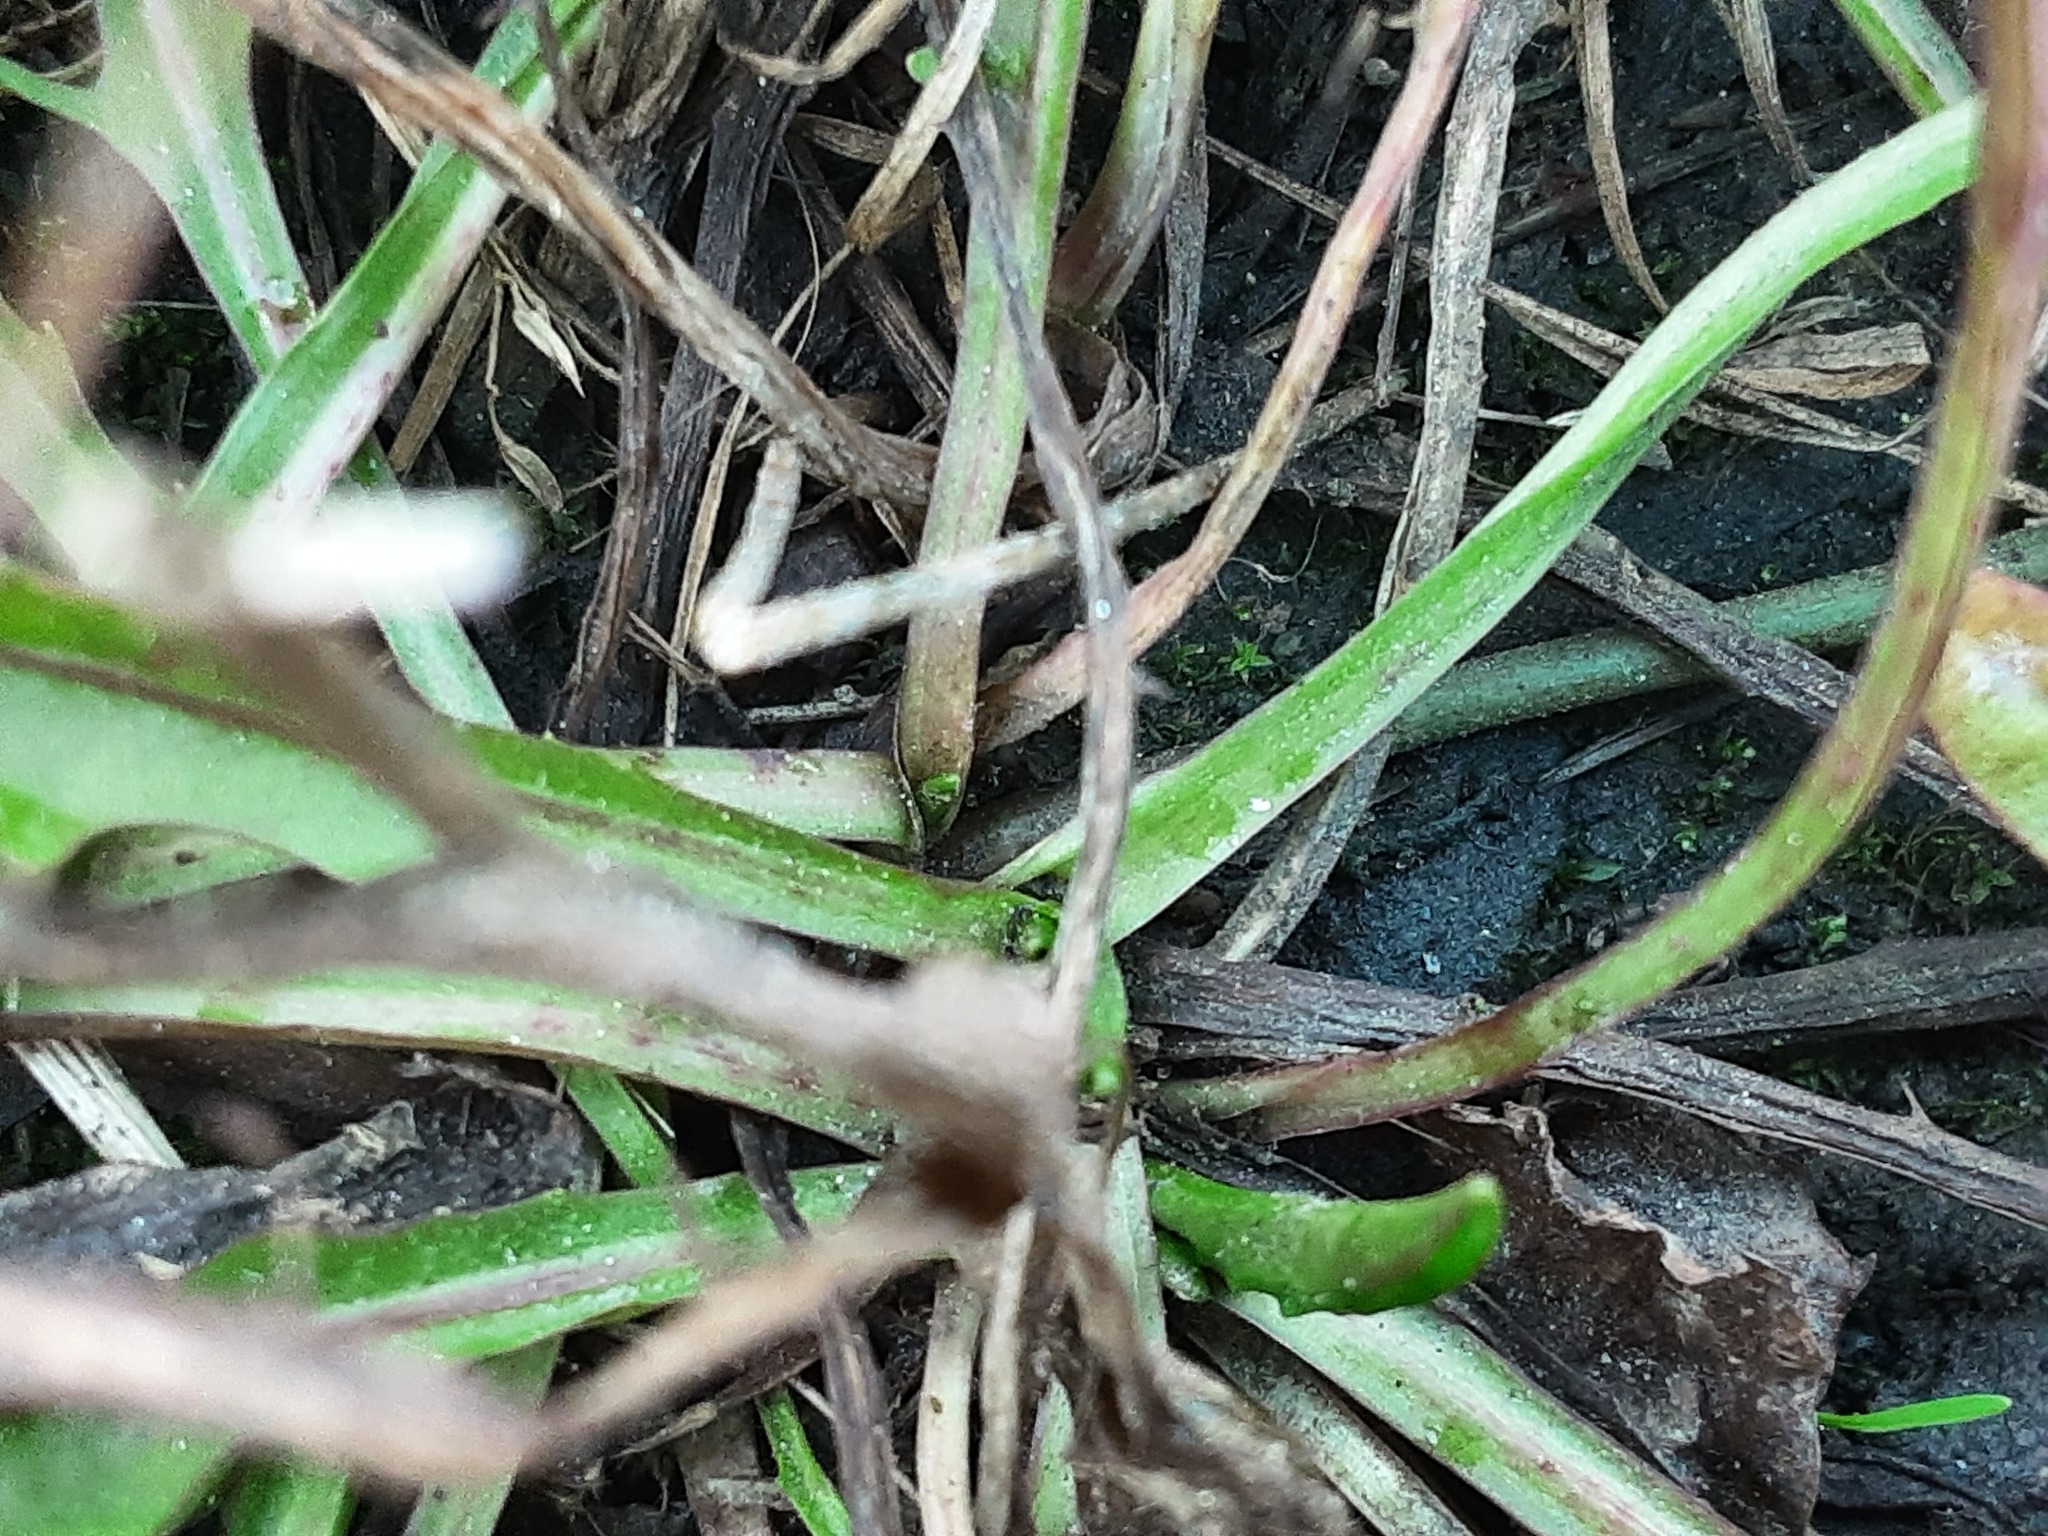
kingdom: Plantae
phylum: Tracheophyta
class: Magnoliopsida
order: Asterales
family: Asteraceae
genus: Scorzoneroides
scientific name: Scorzoneroides autumnalis
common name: Autumn hawkbit
